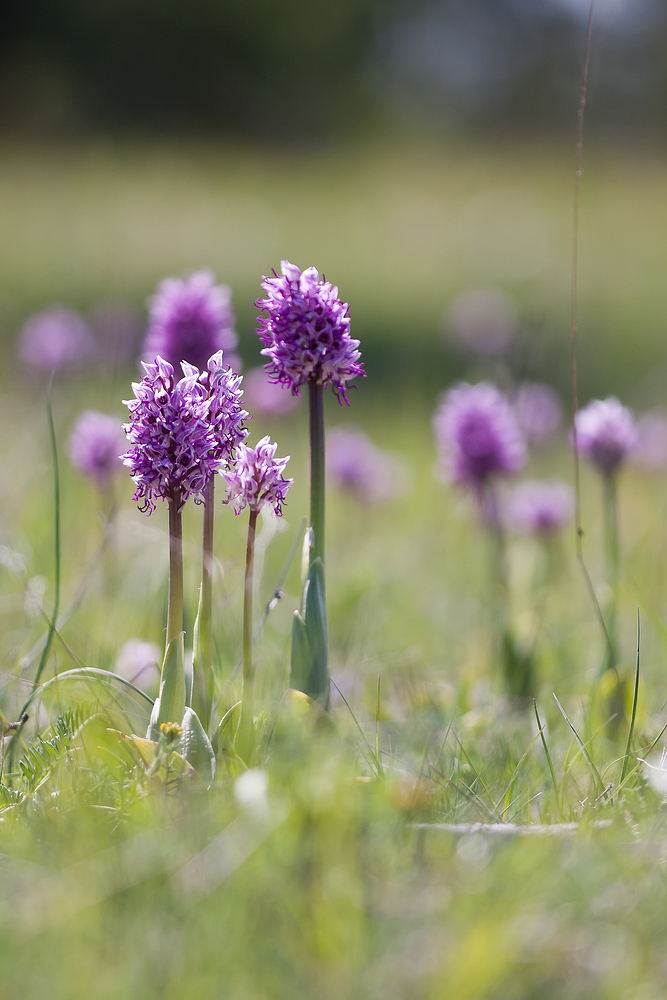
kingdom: Plantae
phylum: Tracheophyta
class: Liliopsida
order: Asparagales
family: Orchidaceae
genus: Orchis
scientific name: Orchis simia
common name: Monkey orchid
